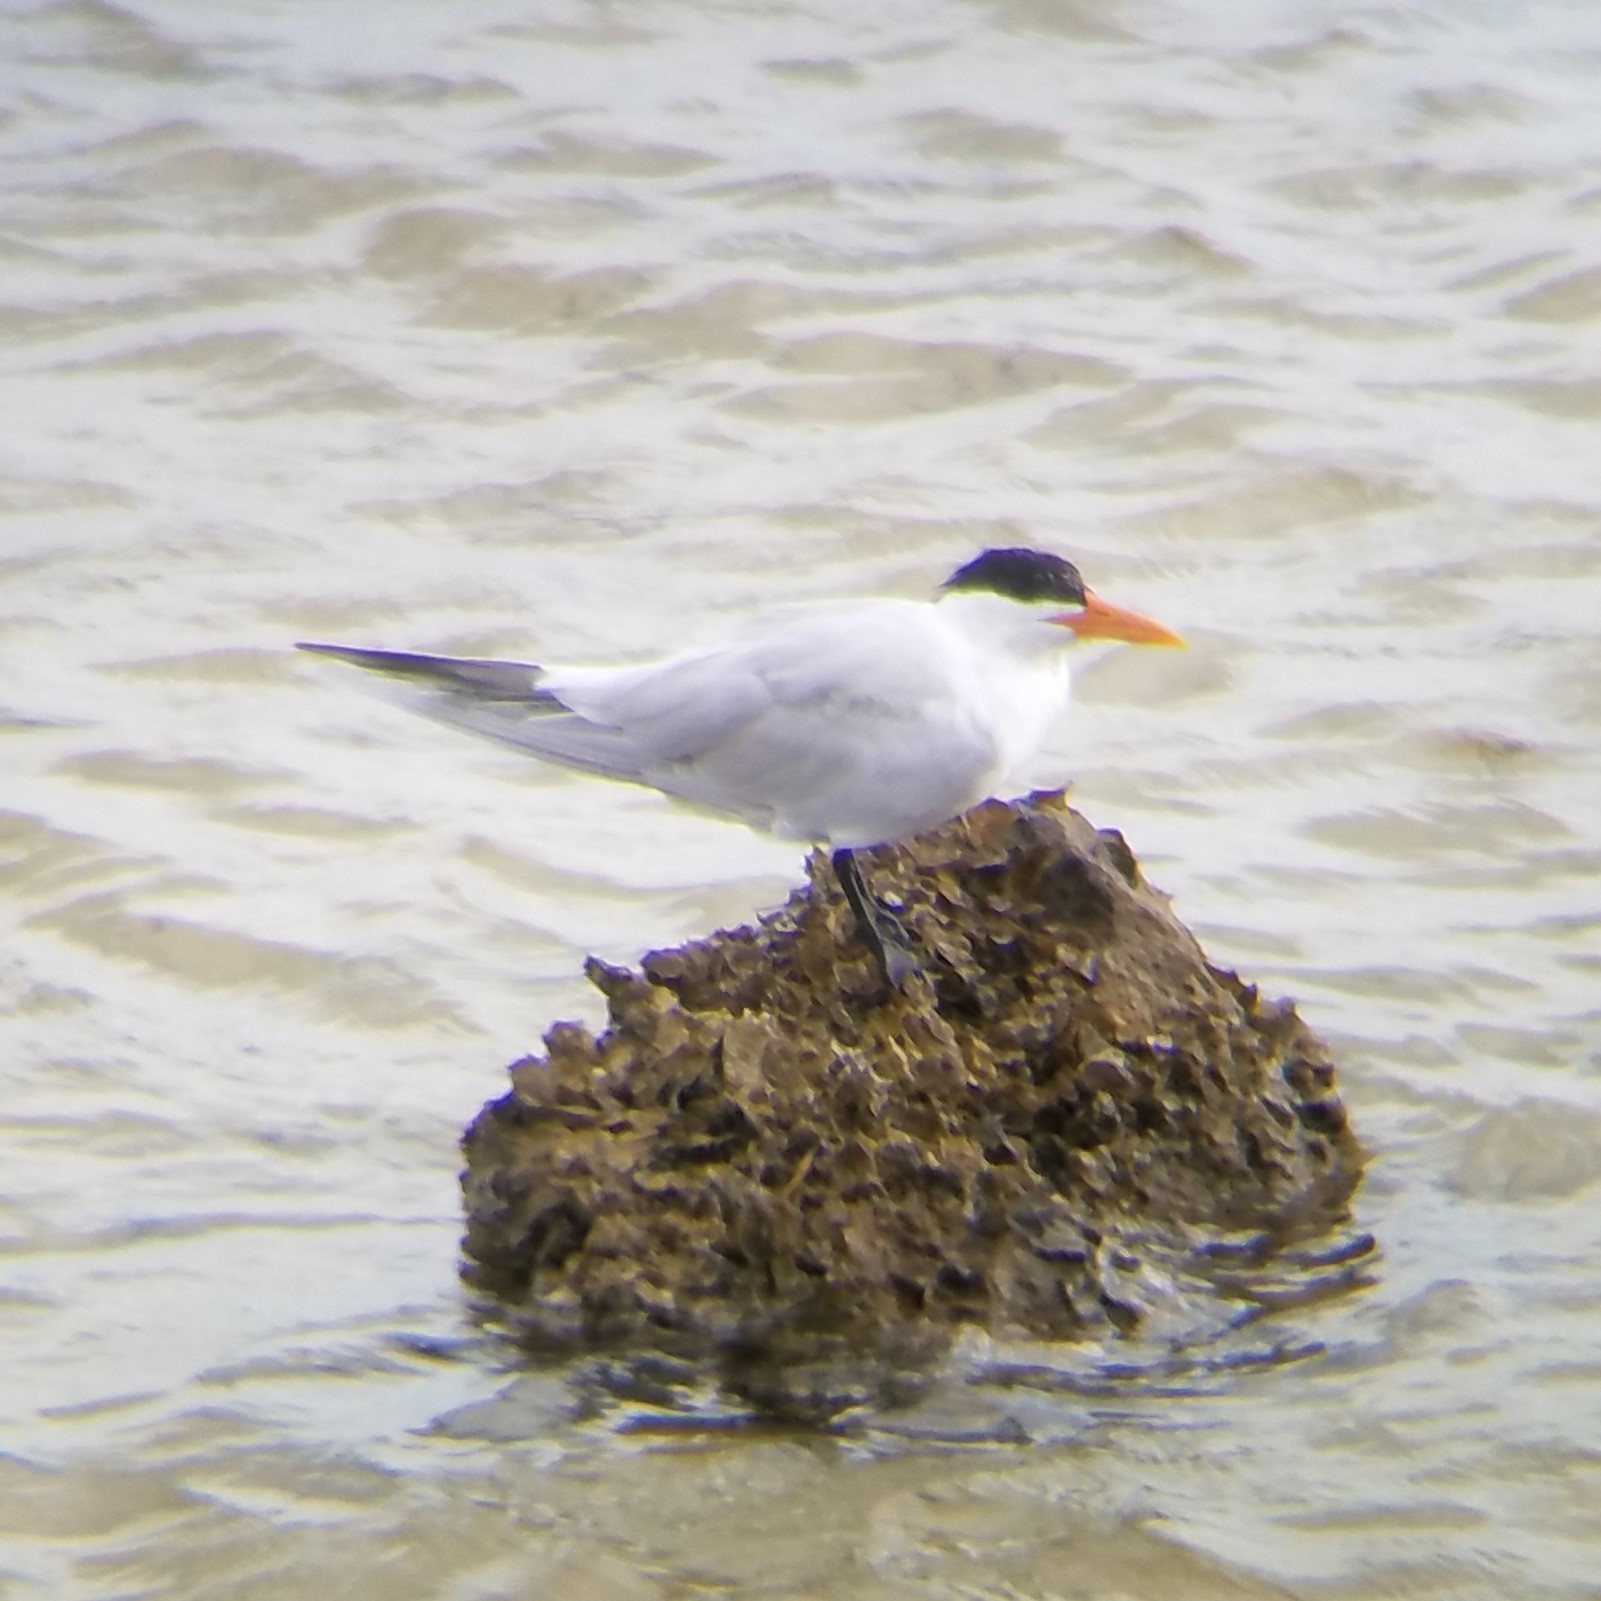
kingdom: Animalia
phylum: Chordata
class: Aves
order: Charadriiformes
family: Laridae
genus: Thalasseus
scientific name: Thalasseus maximus
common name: Royal tern
